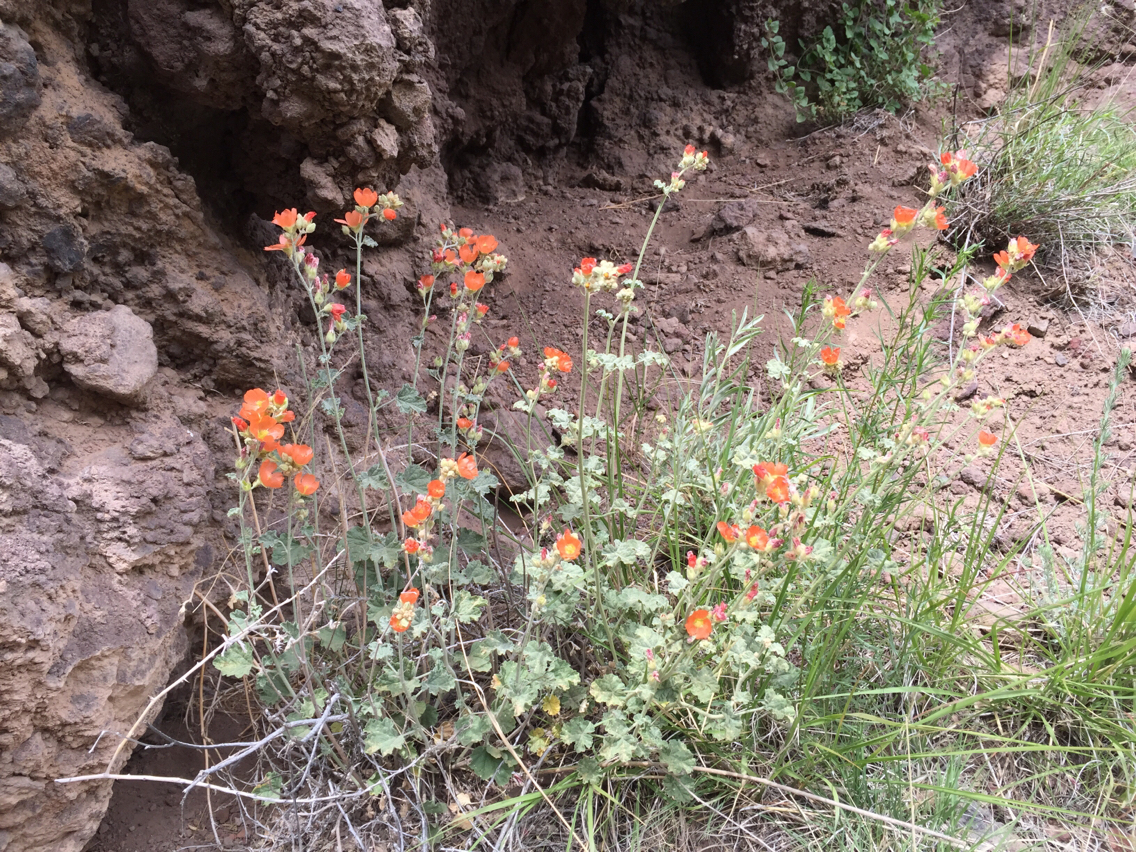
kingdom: Plantae
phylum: Tracheophyta
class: Magnoliopsida
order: Malvales
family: Malvaceae
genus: Sphaeralcea
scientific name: Sphaeralcea parvifolia
